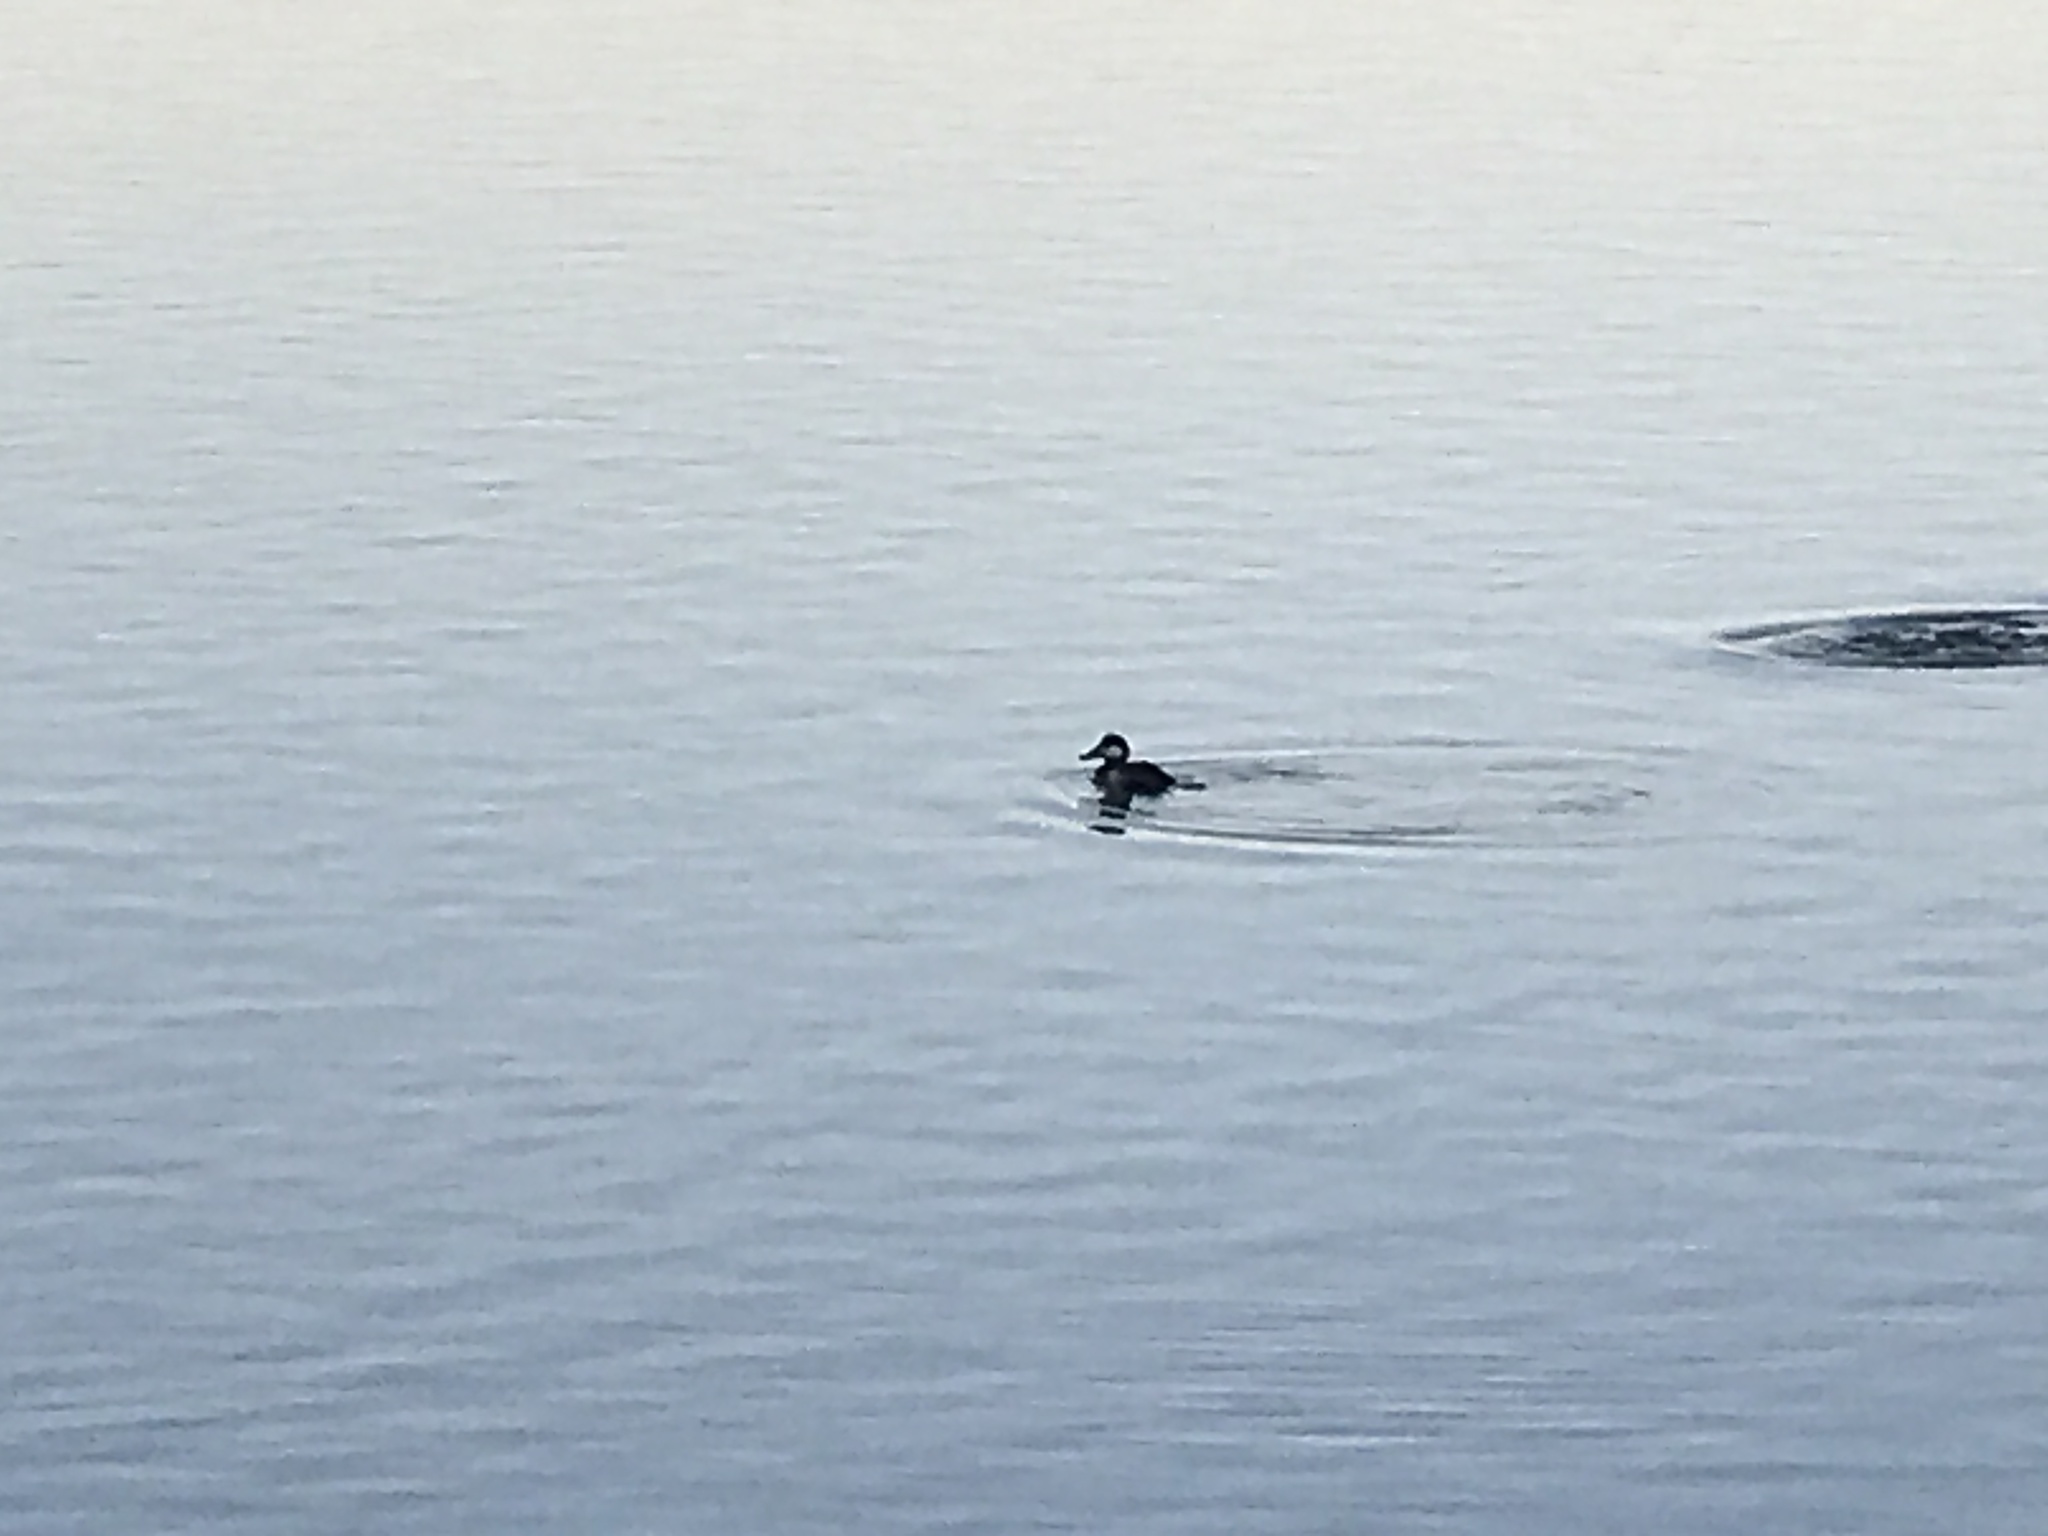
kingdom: Animalia
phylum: Chordata
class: Aves
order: Anseriformes
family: Anatidae
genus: Oxyura
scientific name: Oxyura jamaicensis
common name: Ruddy duck
